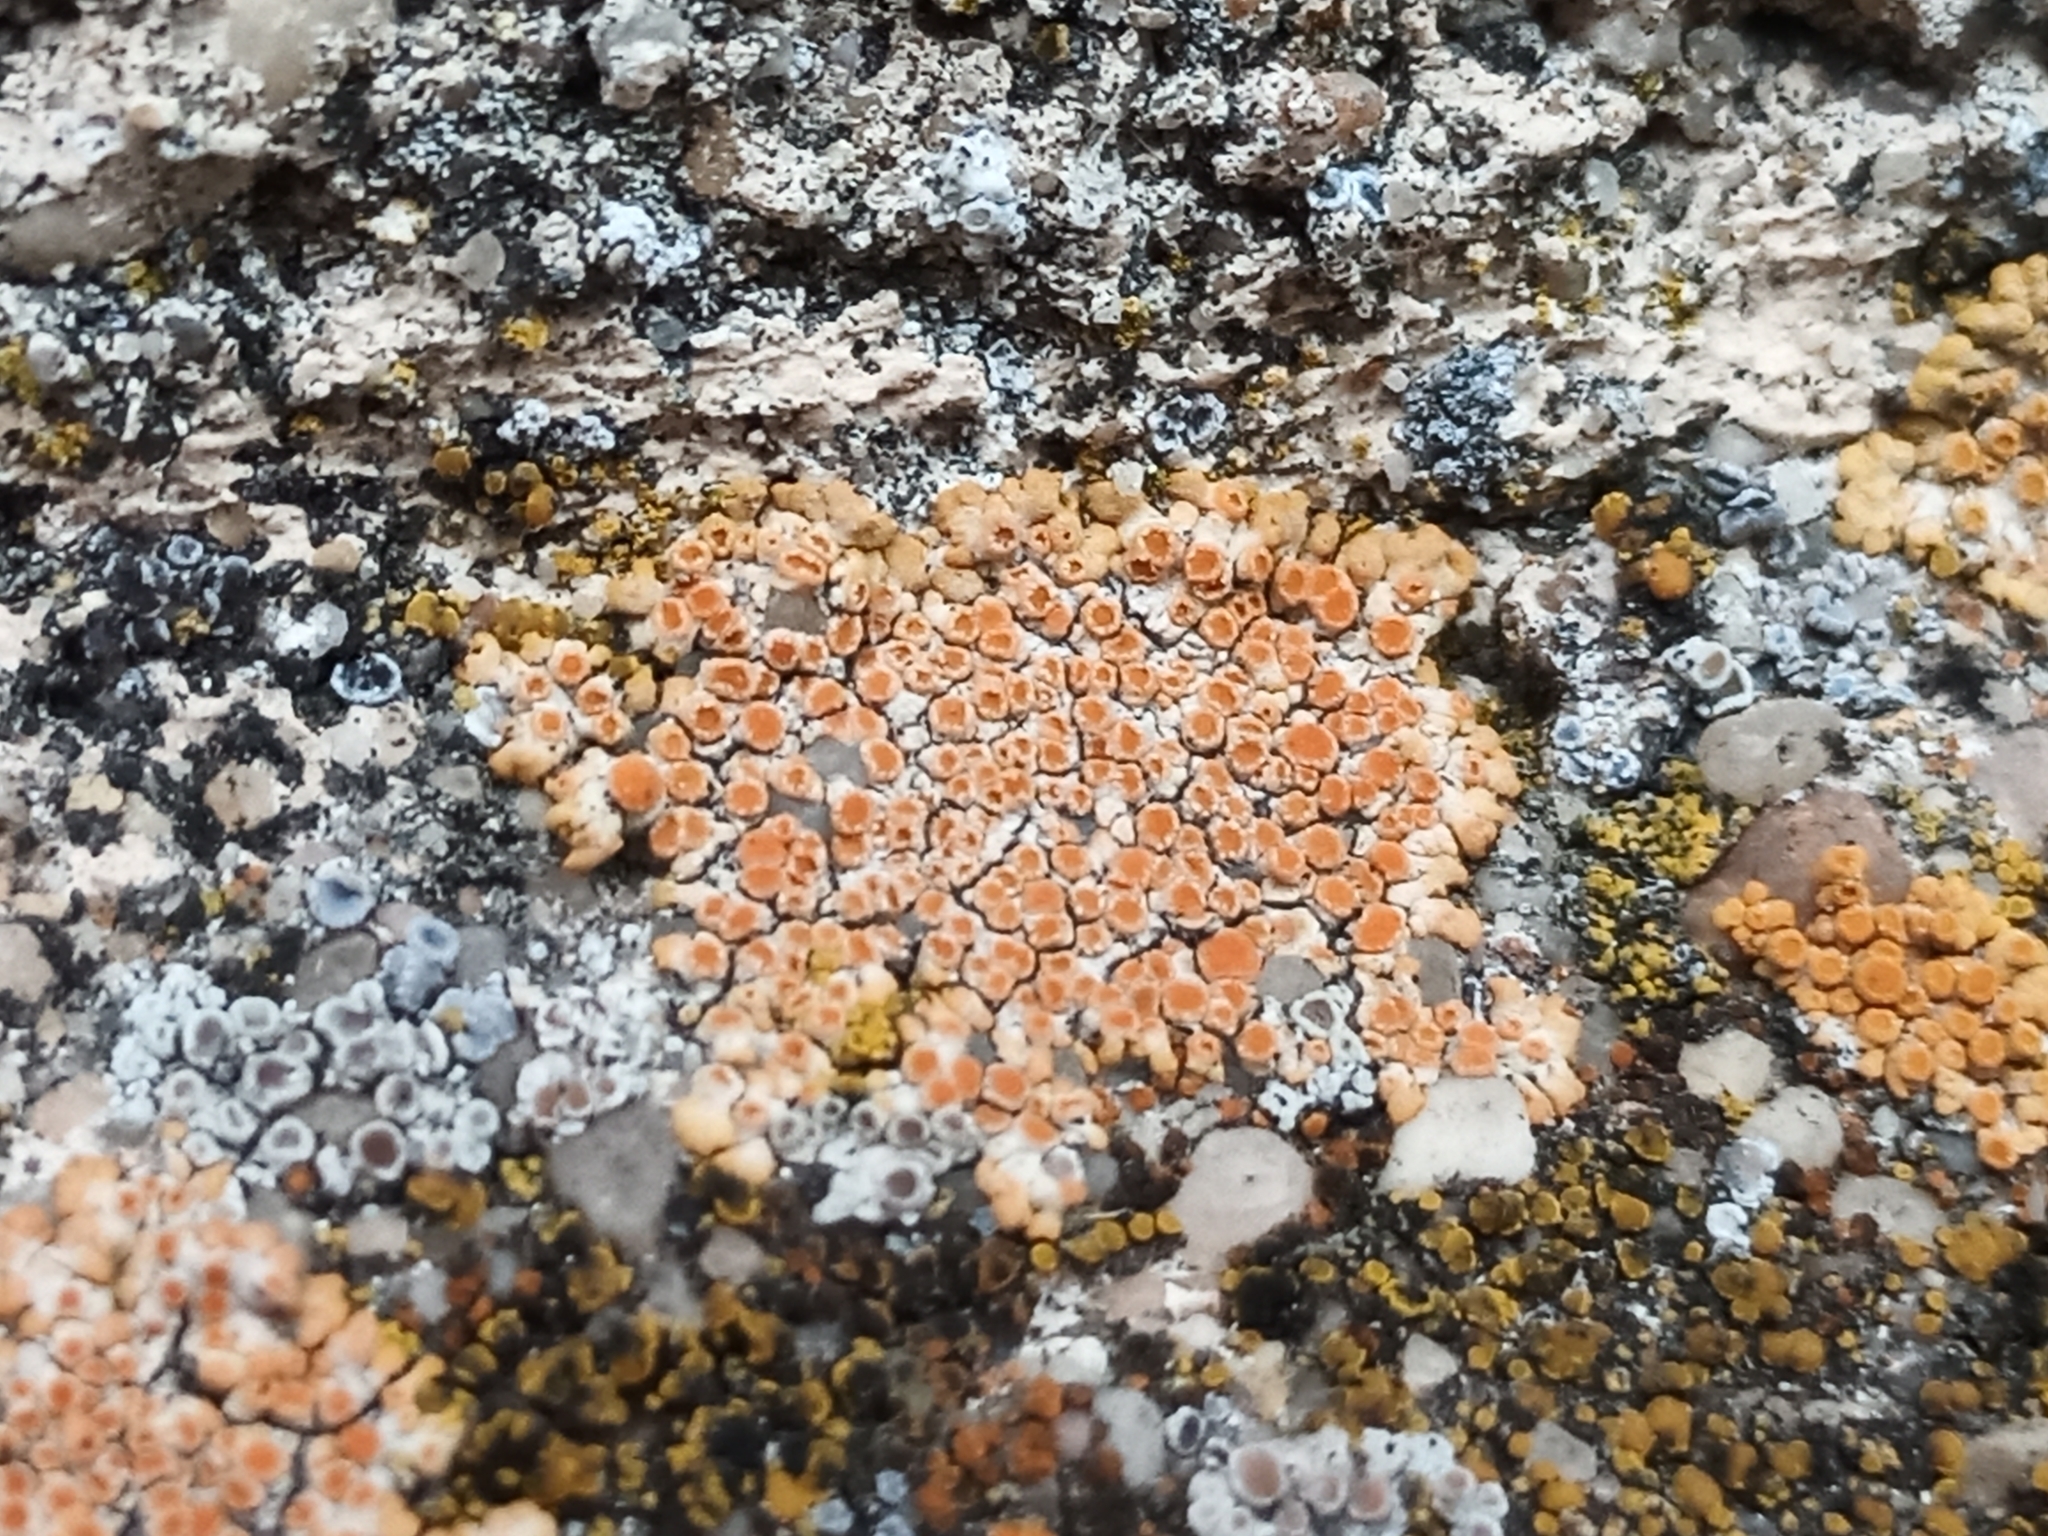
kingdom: Fungi
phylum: Ascomycota
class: Lecanoromycetes
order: Teloschistales
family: Teloschistaceae
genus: Calogaya
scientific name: Calogaya arnoldii
